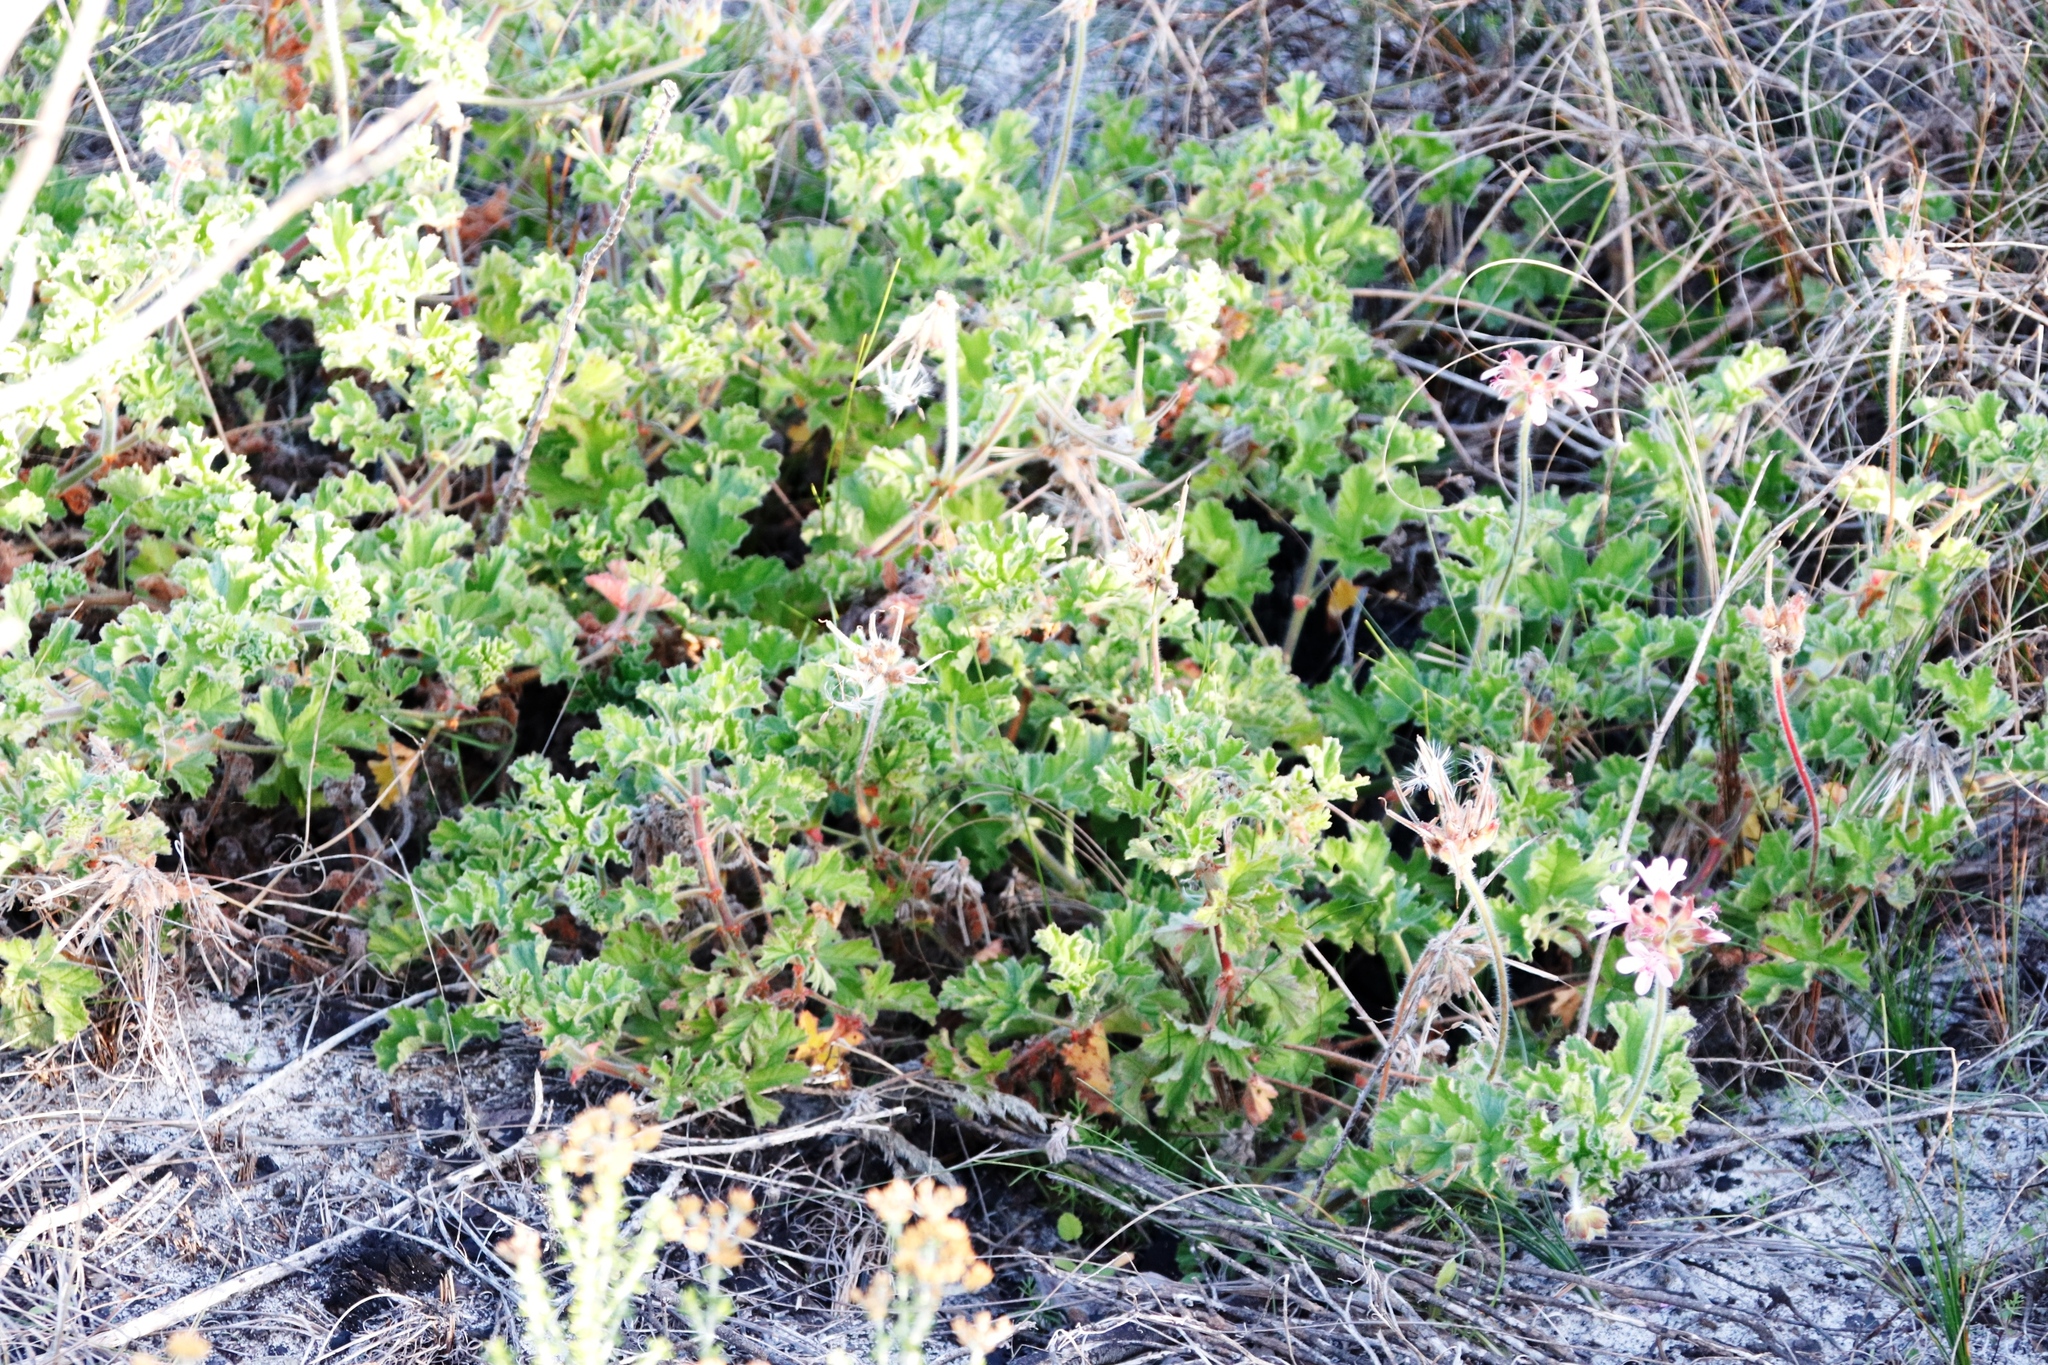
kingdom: Plantae
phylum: Tracheophyta
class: Magnoliopsida
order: Geraniales
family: Geraniaceae
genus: Pelargonium
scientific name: Pelargonium capitatum
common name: Rose scented geranium
